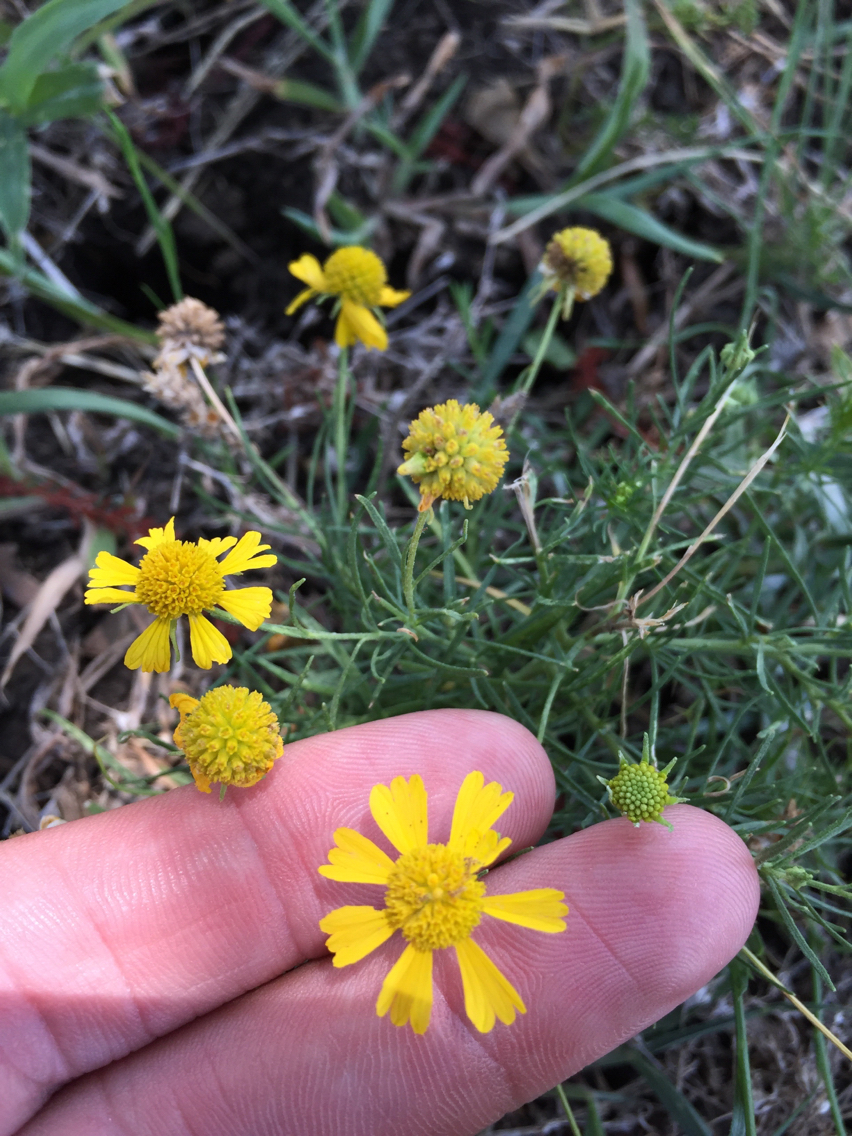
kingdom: Plantae
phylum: Tracheophyta
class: Magnoliopsida
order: Asterales
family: Asteraceae
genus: Helenium
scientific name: Helenium amarum
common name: Bitter sneezeweed
